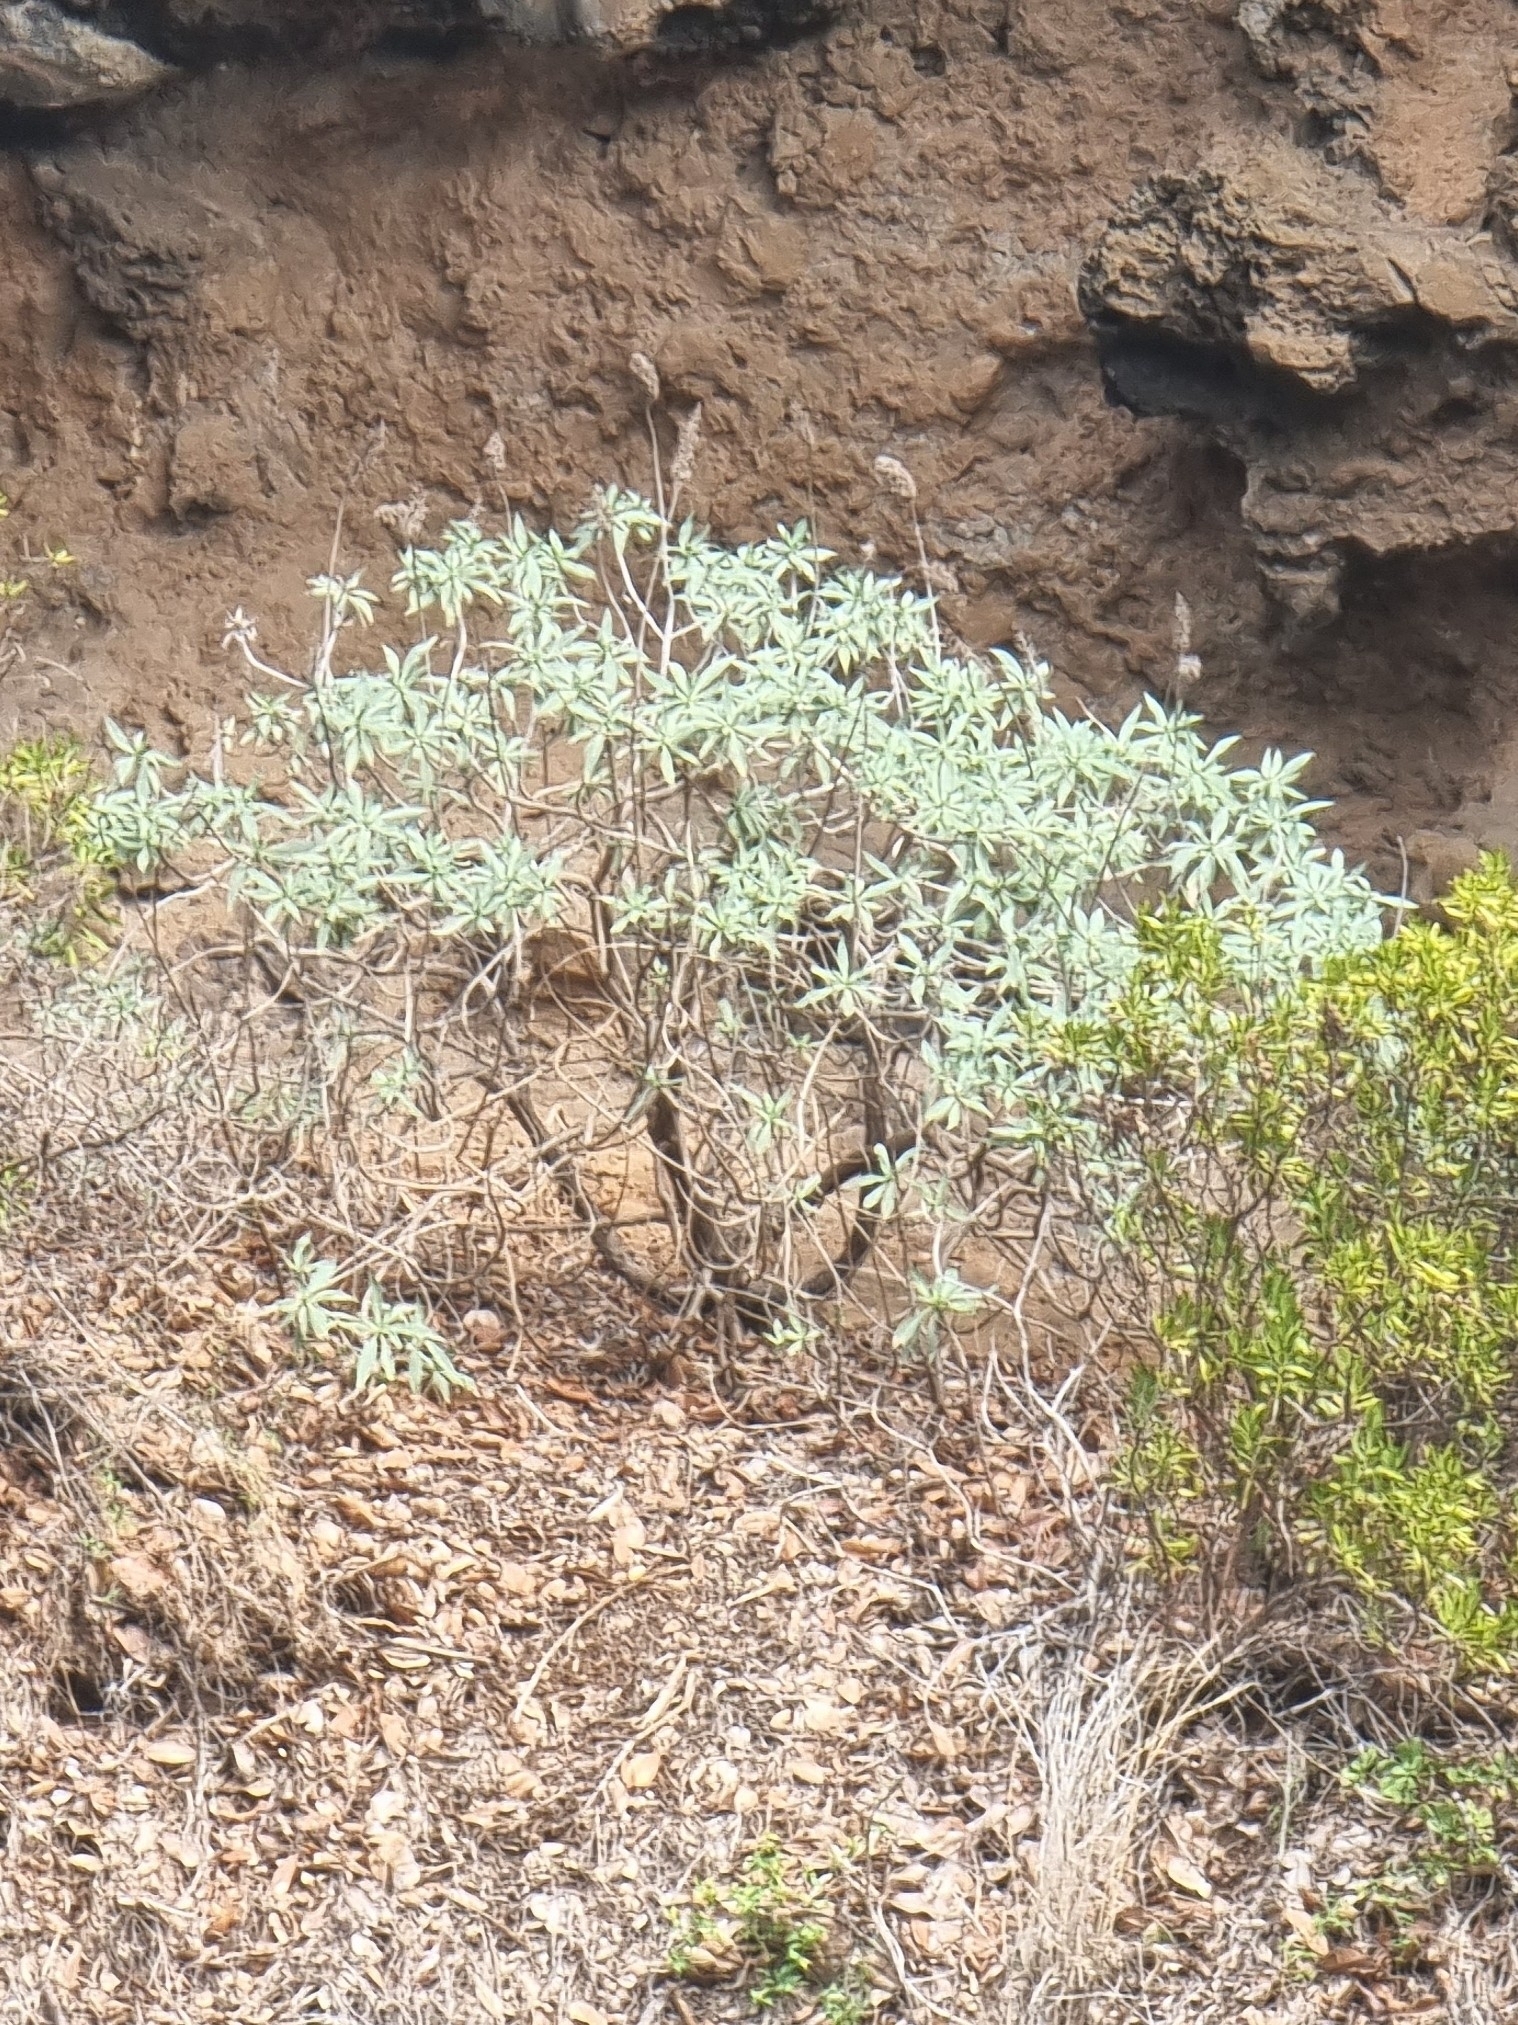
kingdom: Plantae
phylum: Tracheophyta
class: Magnoliopsida
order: Boraginales
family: Boraginaceae
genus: Echium
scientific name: Echium nervosum
